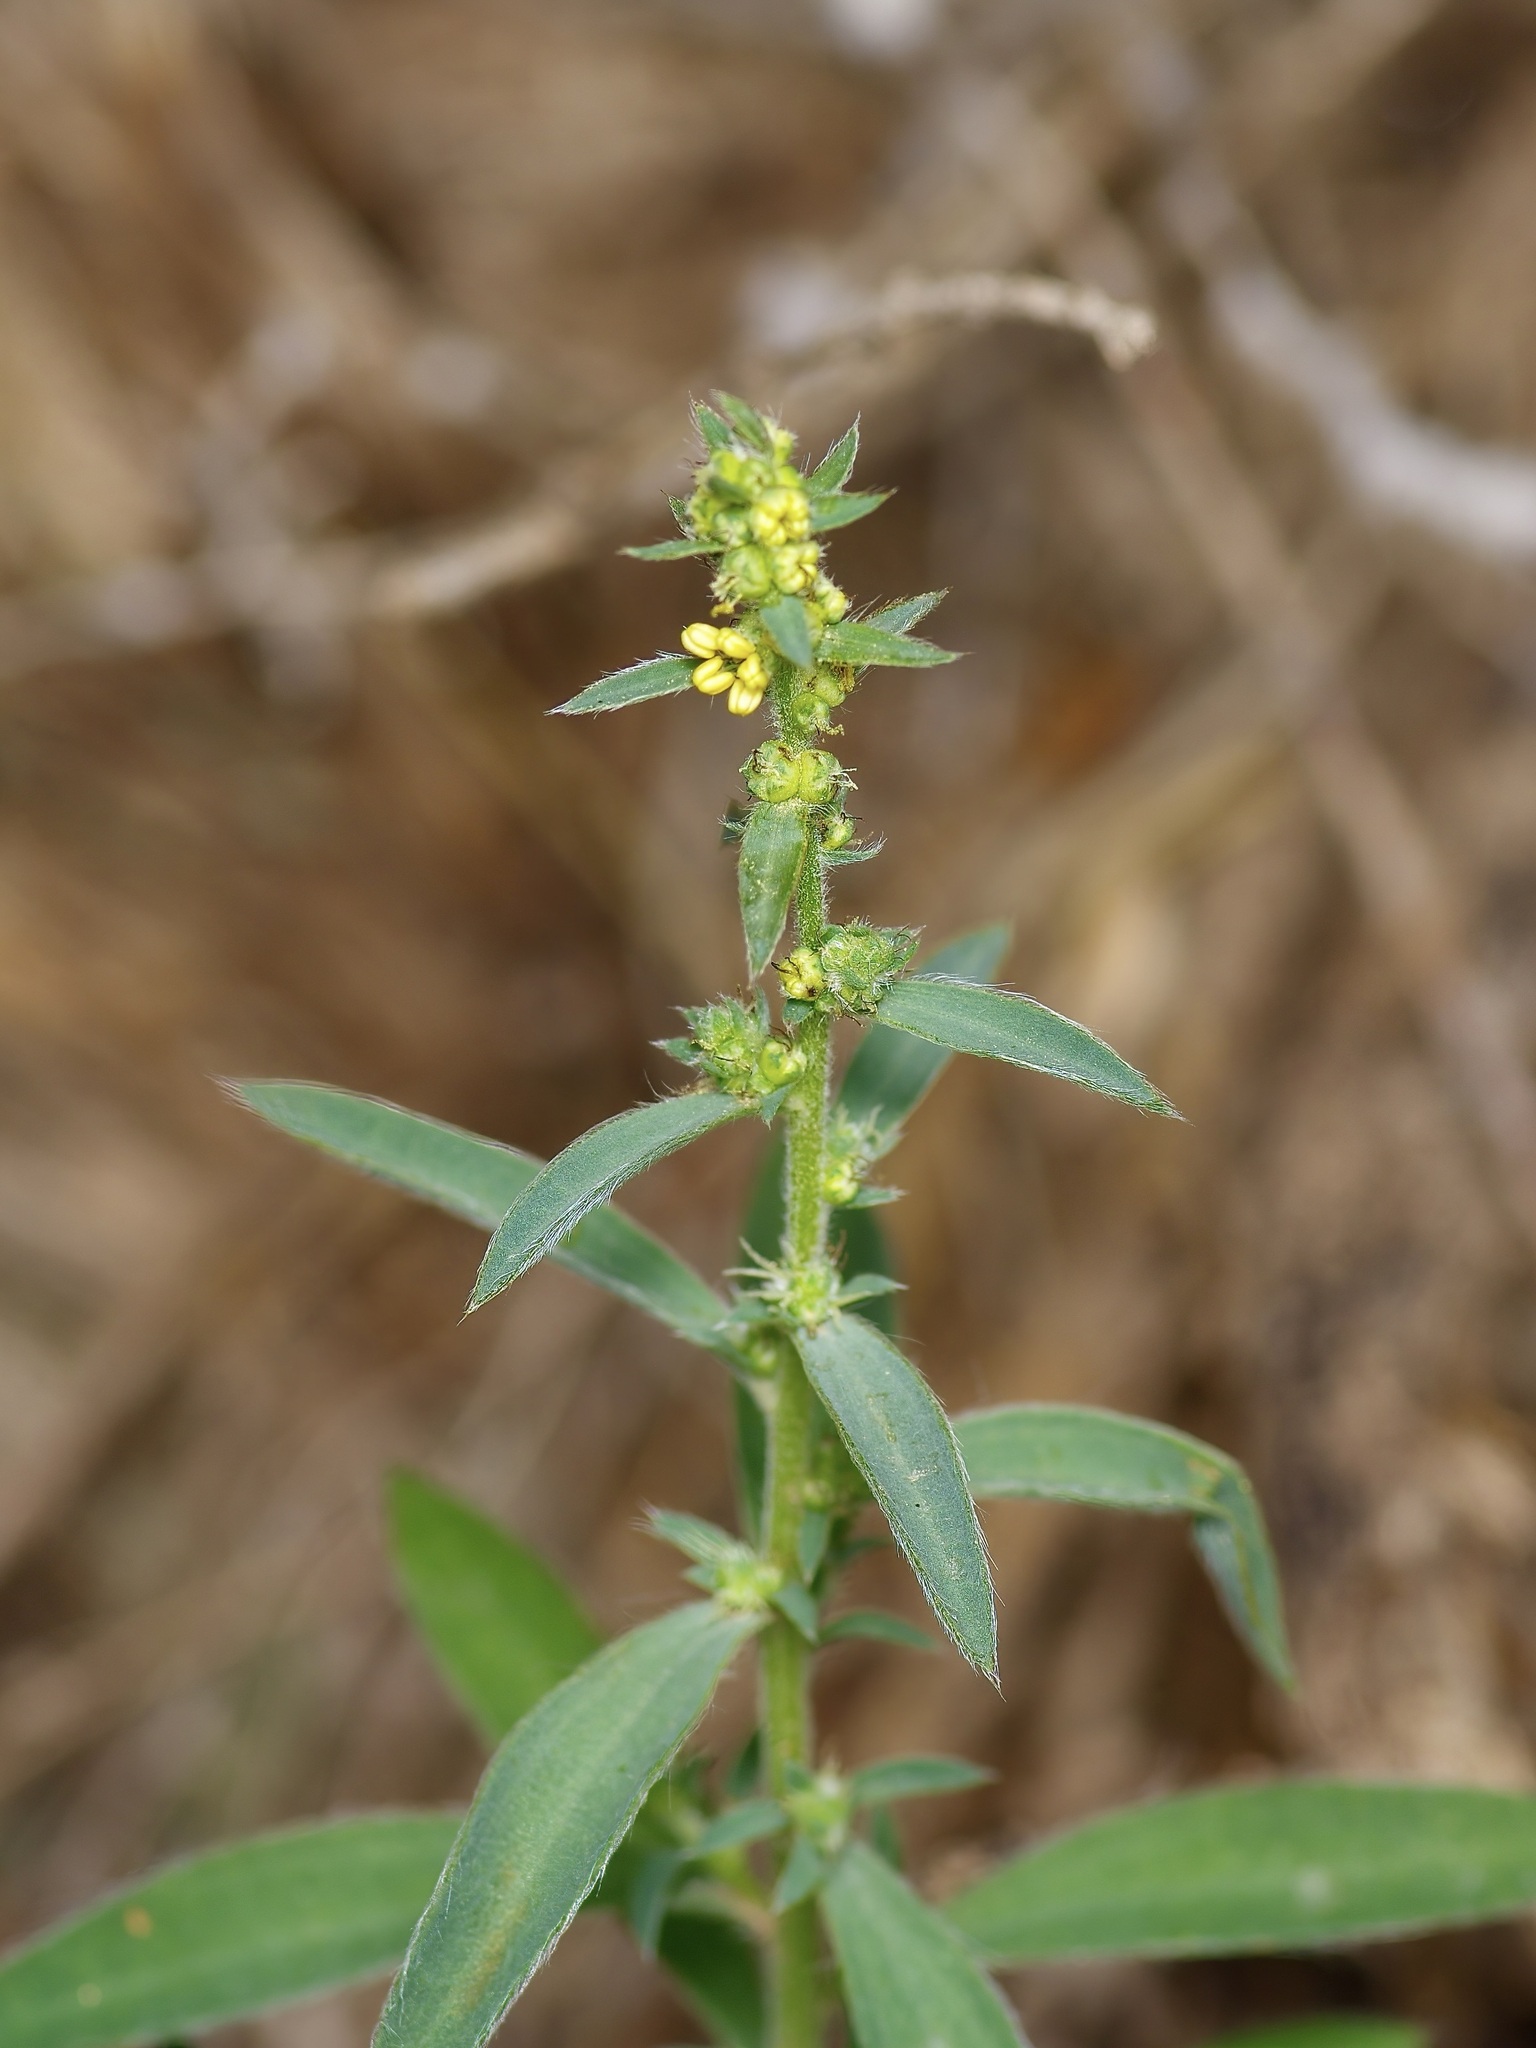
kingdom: Plantae
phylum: Tracheophyta
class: Magnoliopsida
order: Caryophyllales
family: Amaranthaceae
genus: Bassia
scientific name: Bassia scoparia
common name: Belvedere
